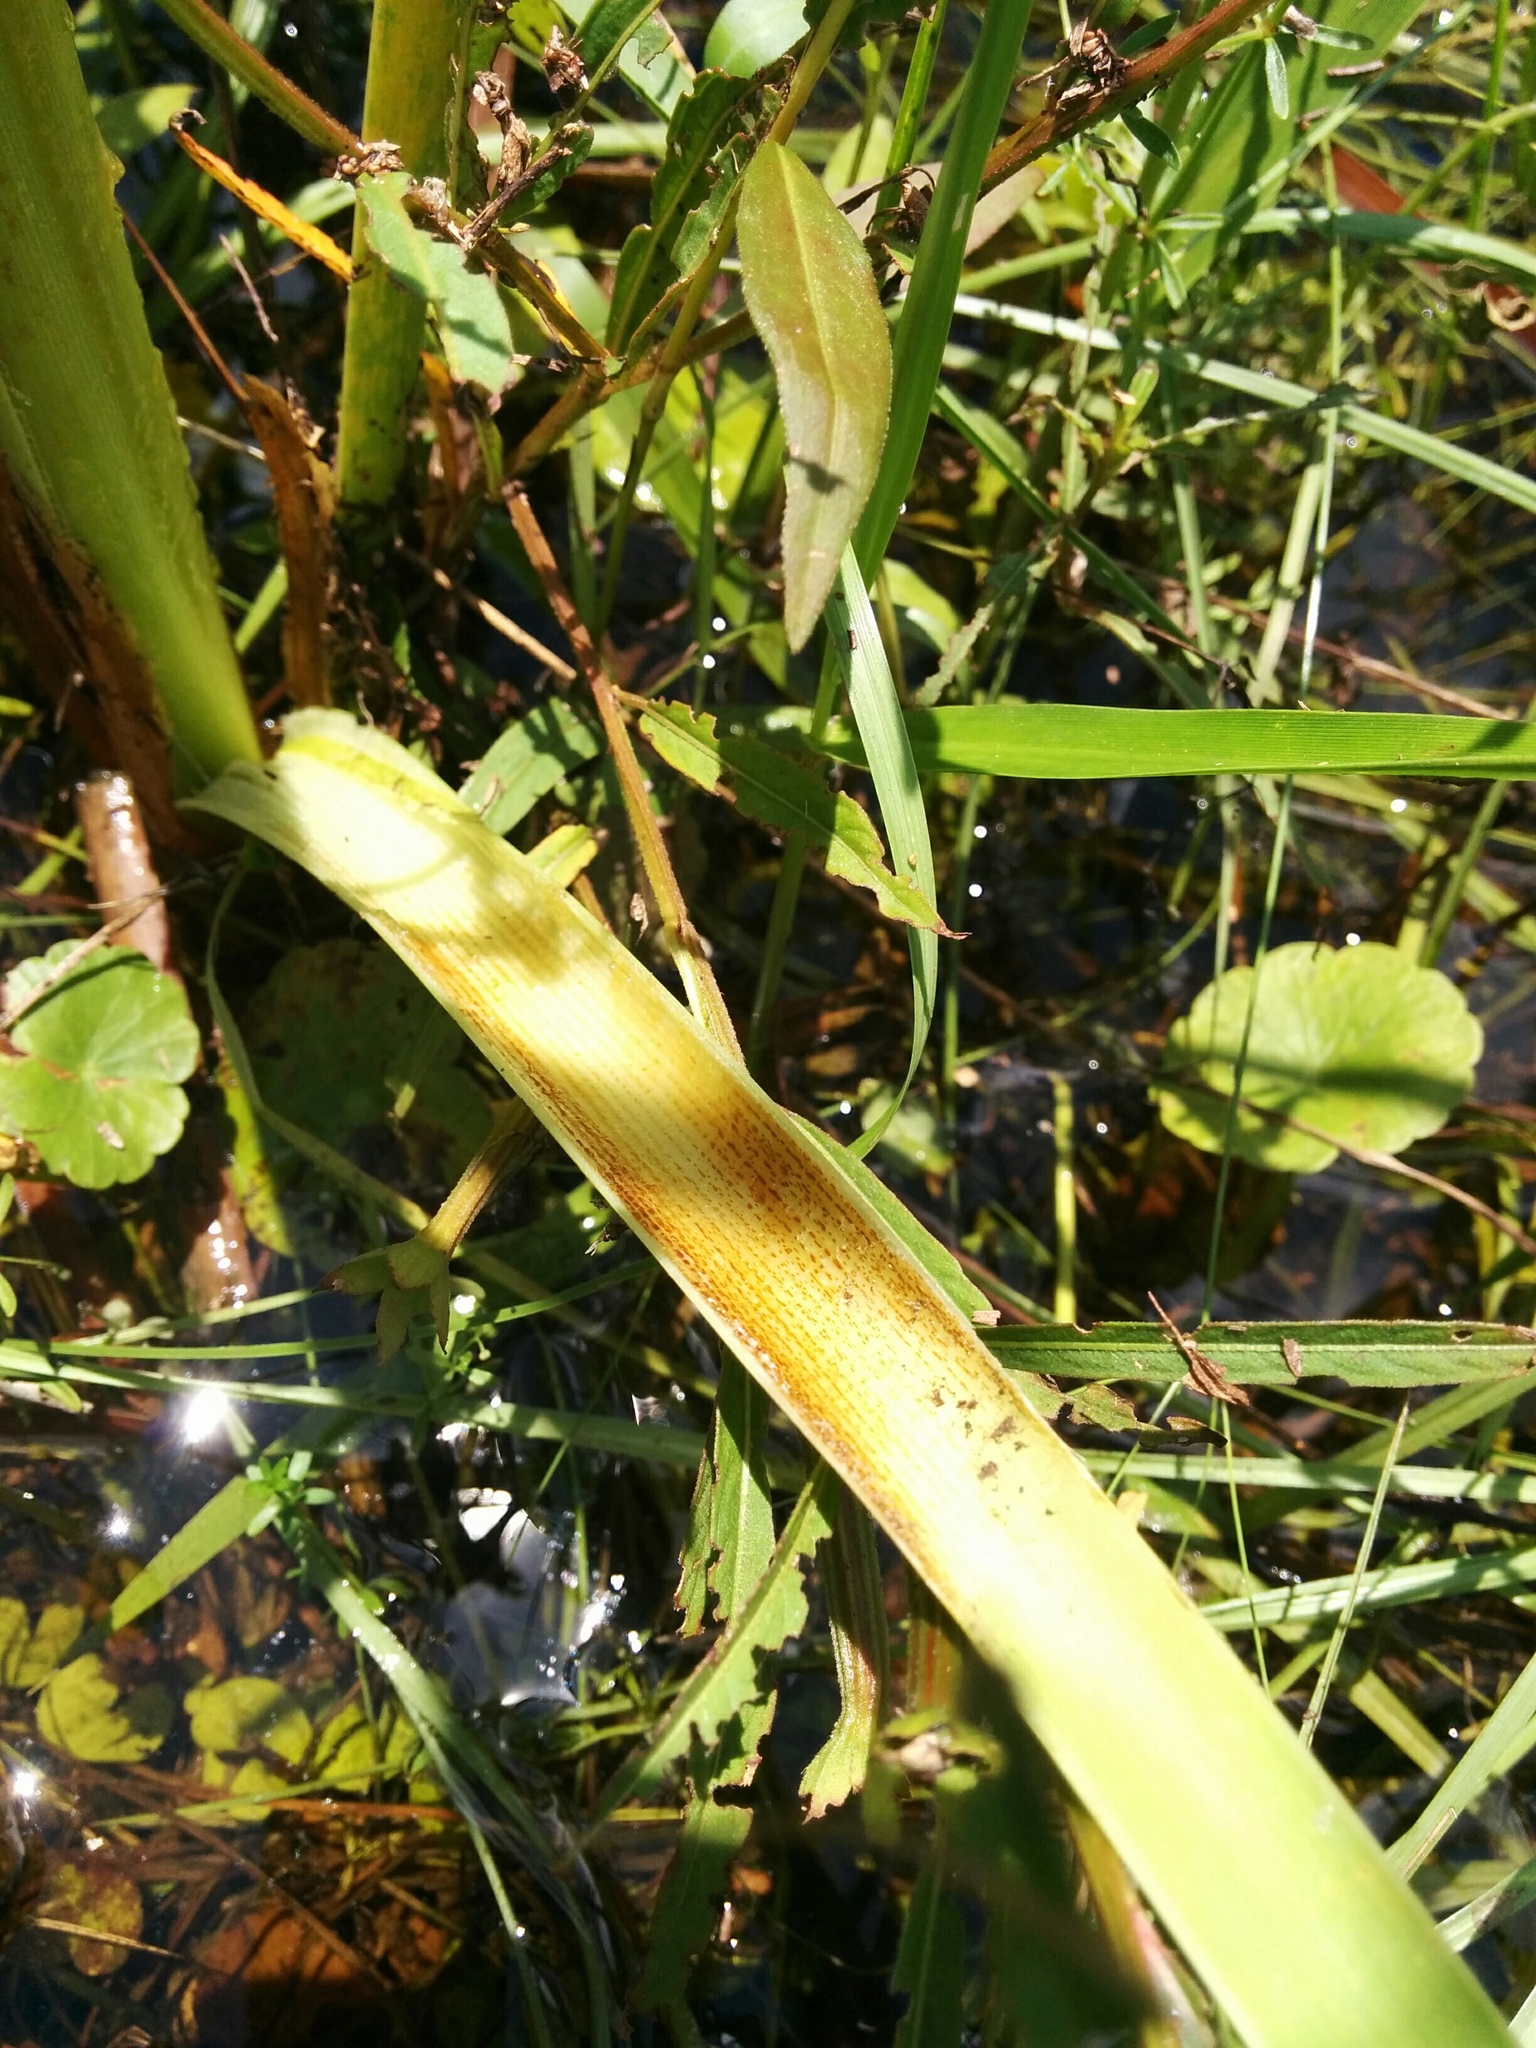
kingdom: Plantae
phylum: Tracheophyta
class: Liliopsida
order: Poales
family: Typhaceae
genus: Typha
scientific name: Typha domingensis
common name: Southern cattail
